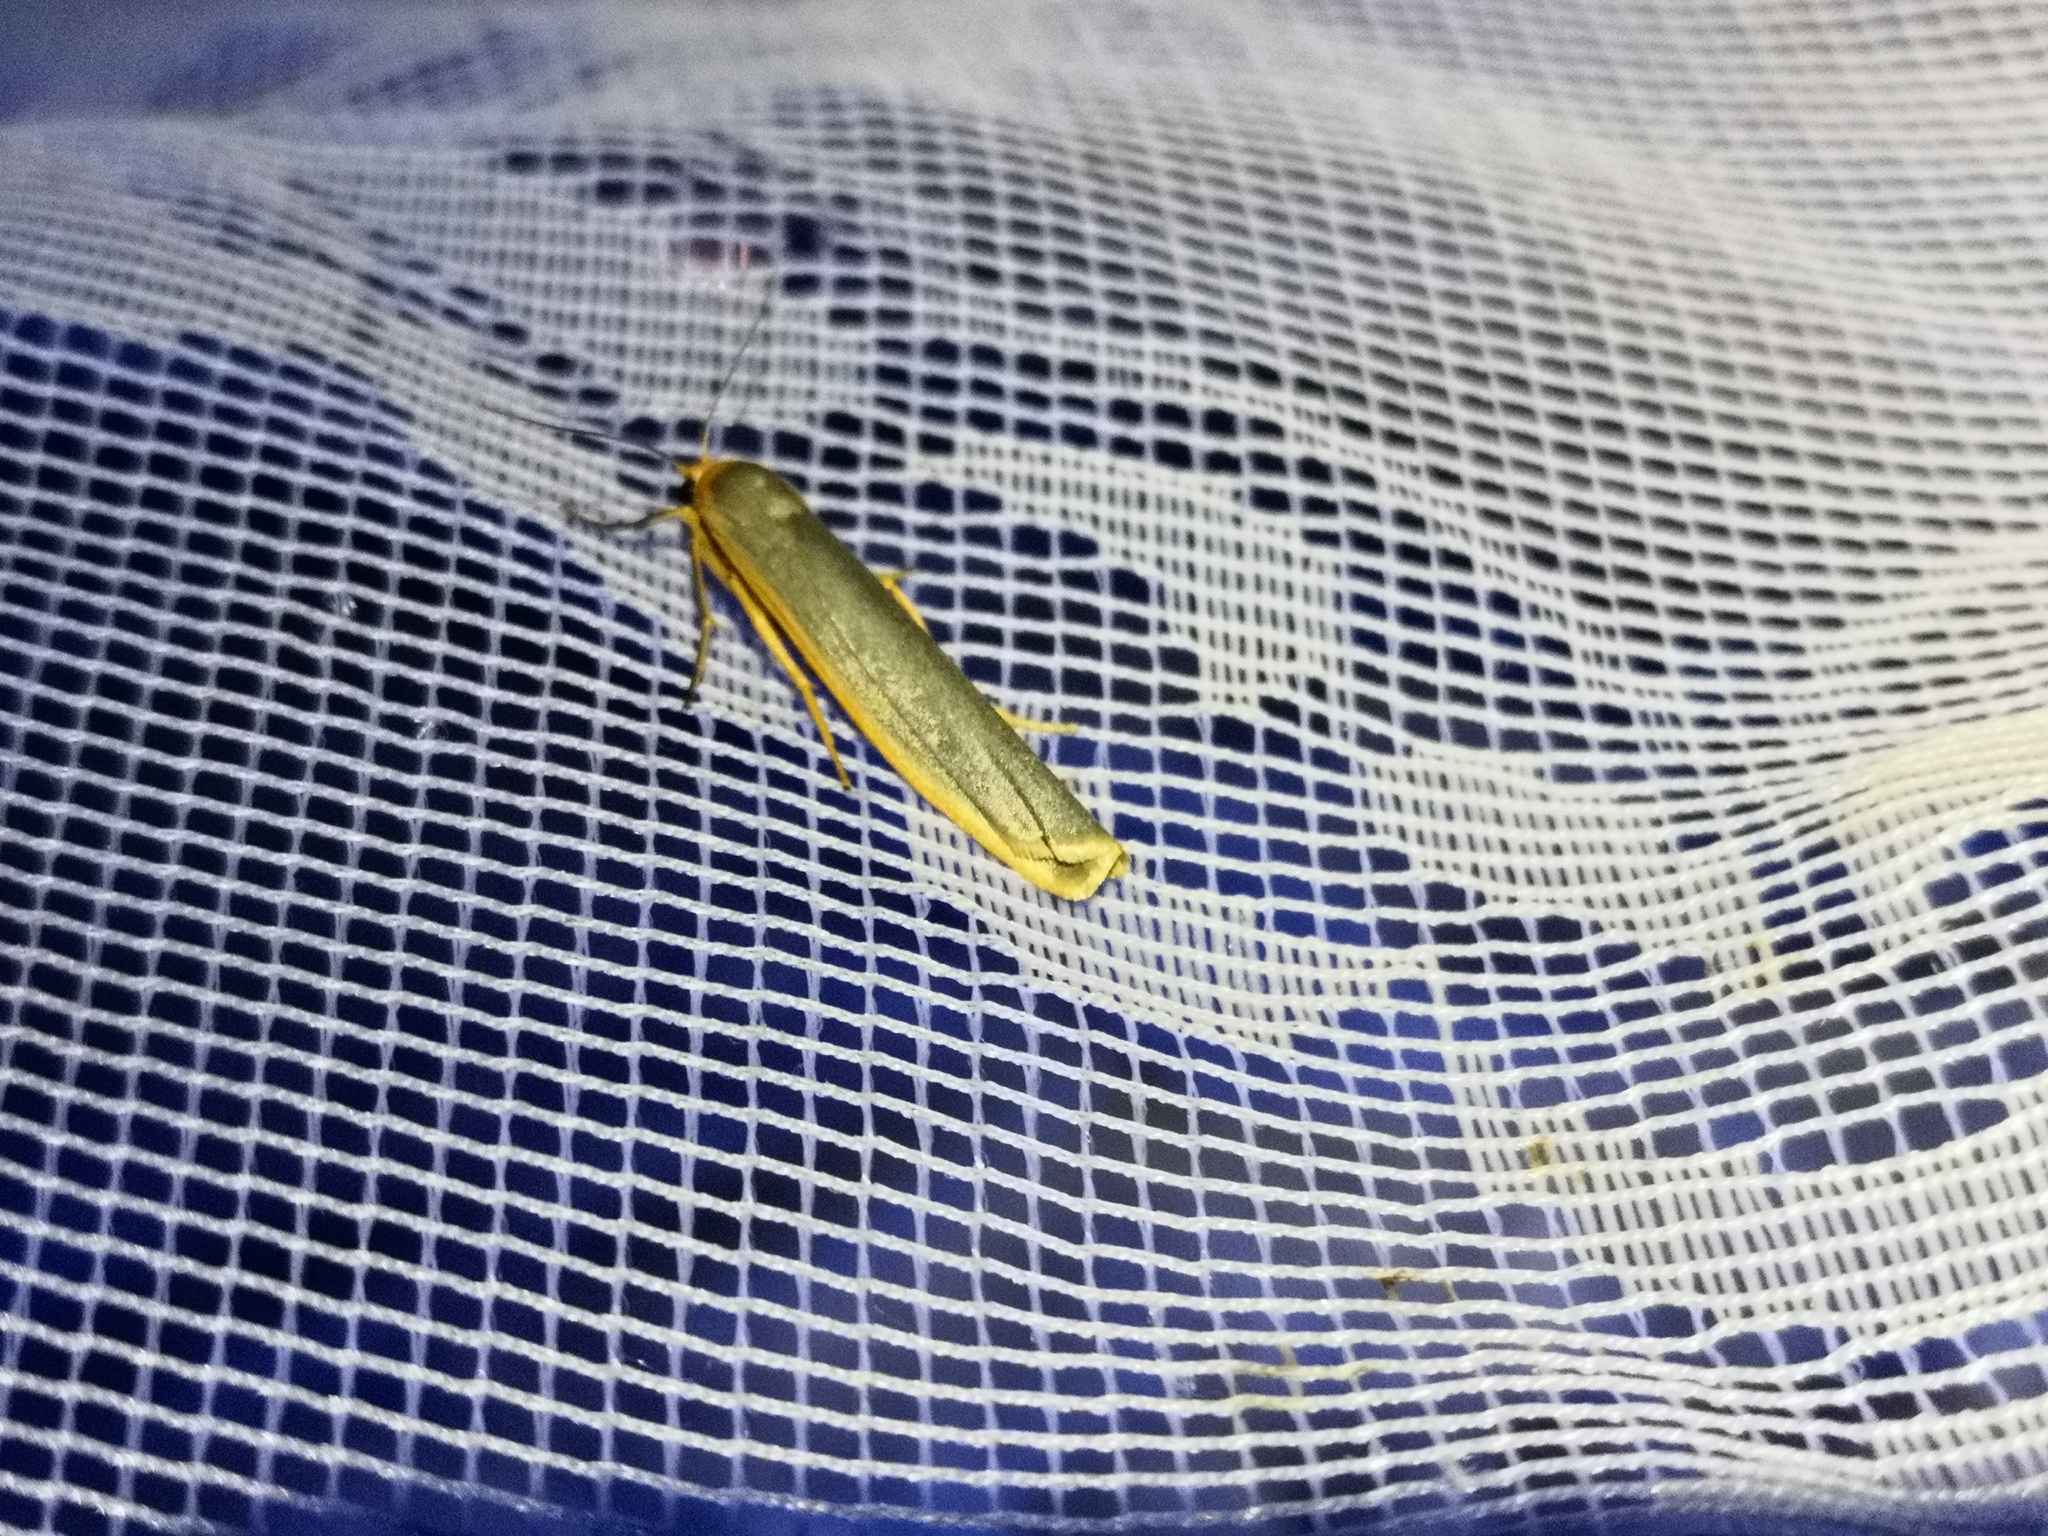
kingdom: Animalia
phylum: Arthropoda
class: Insecta
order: Lepidoptera
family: Erebidae
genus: Manulea
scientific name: Manulea complana
